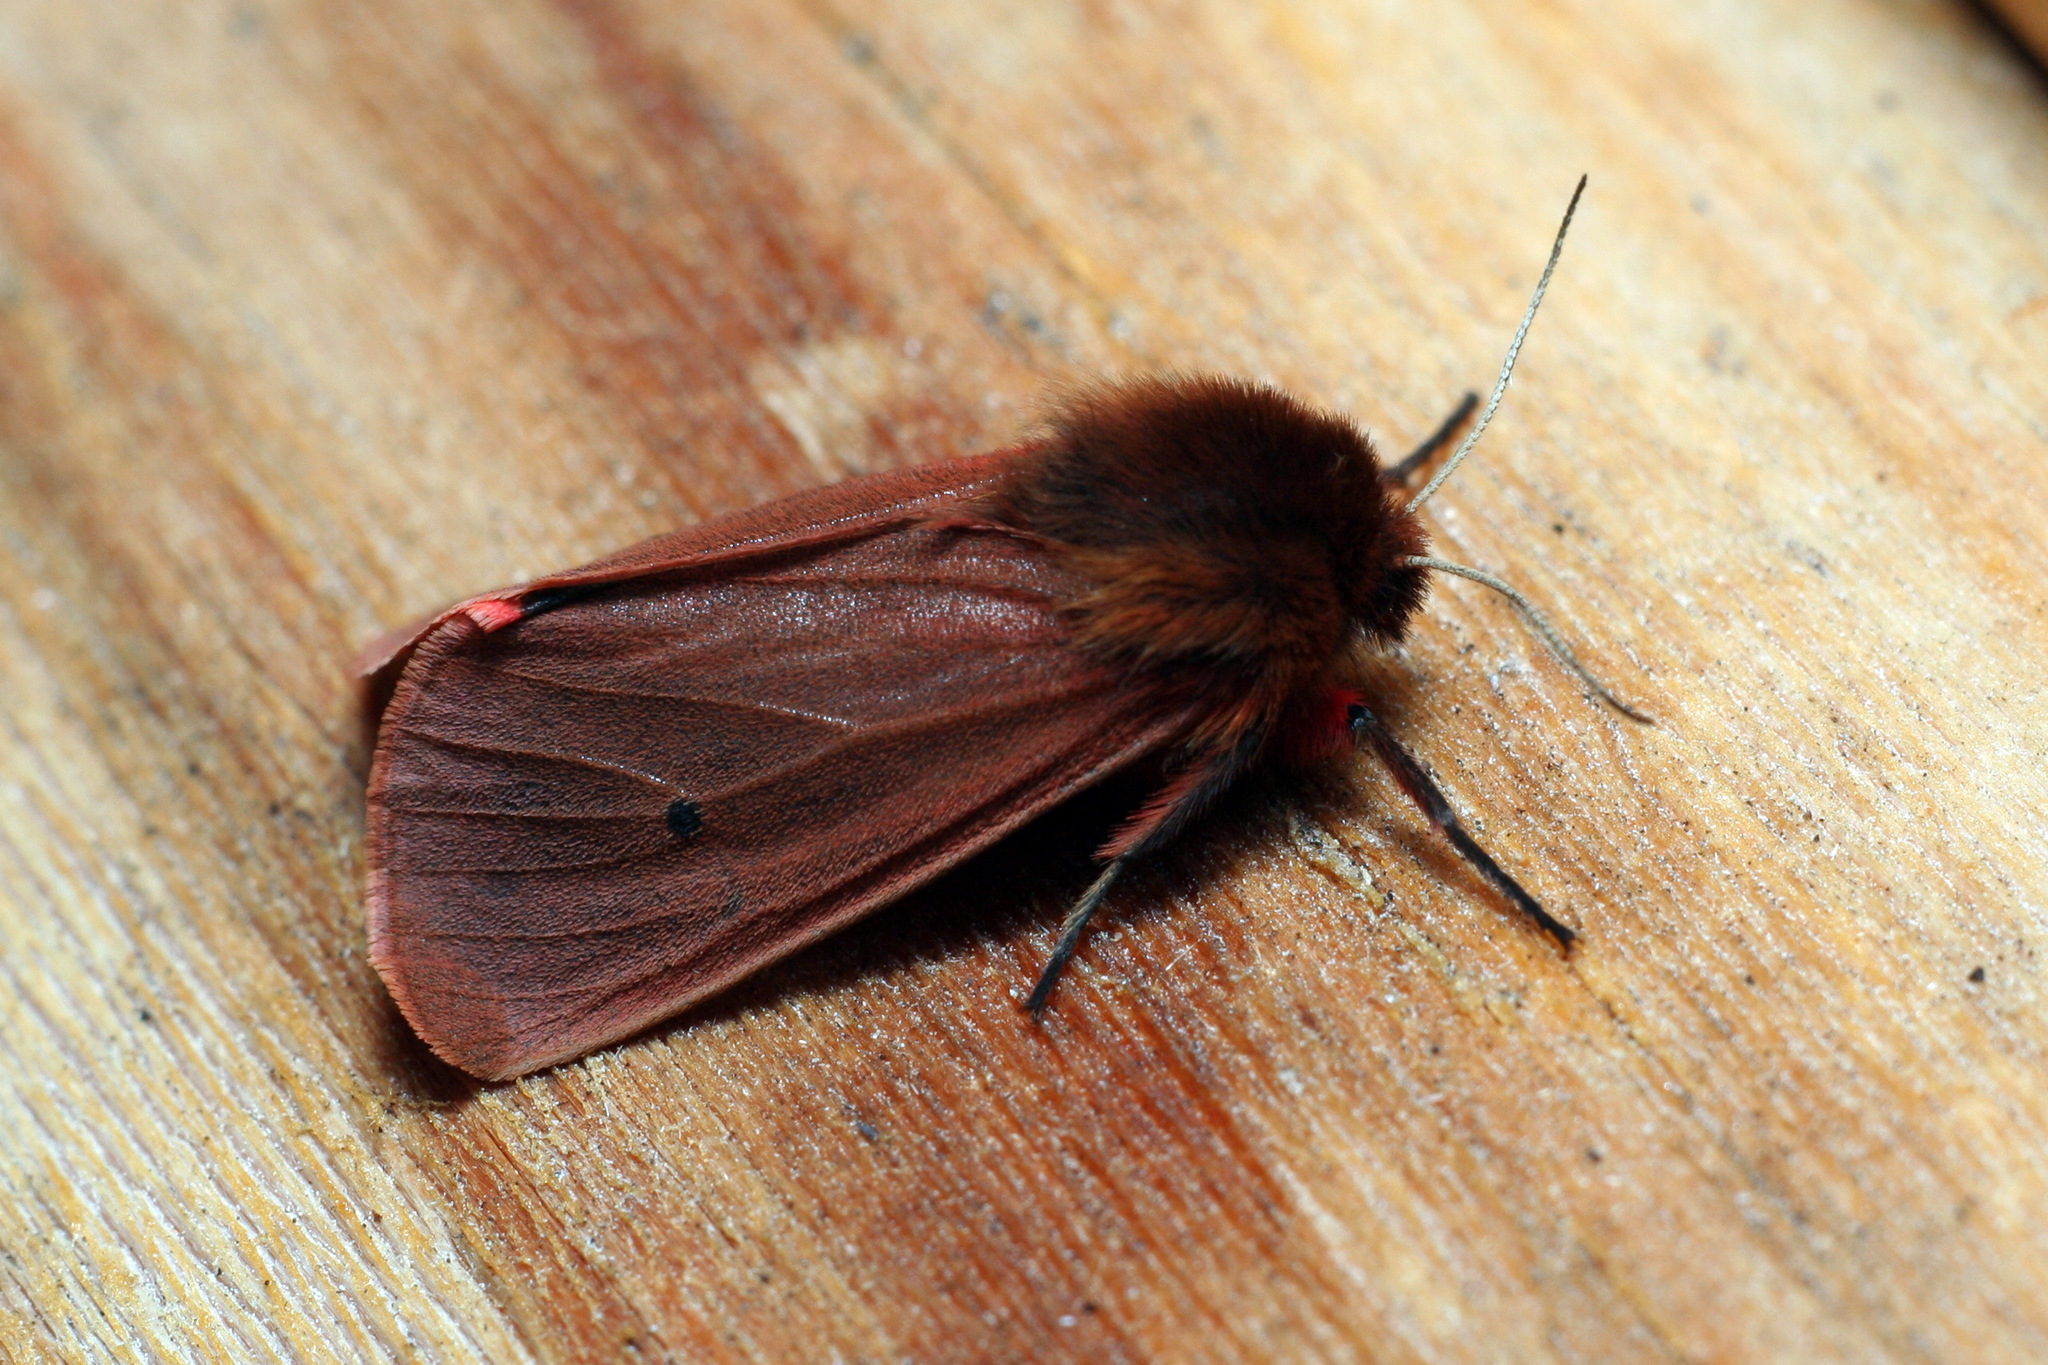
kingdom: Animalia
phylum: Arthropoda
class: Insecta
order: Lepidoptera
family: Erebidae
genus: Phragmatobia
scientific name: Phragmatobia fuliginosa
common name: Ruby tiger
